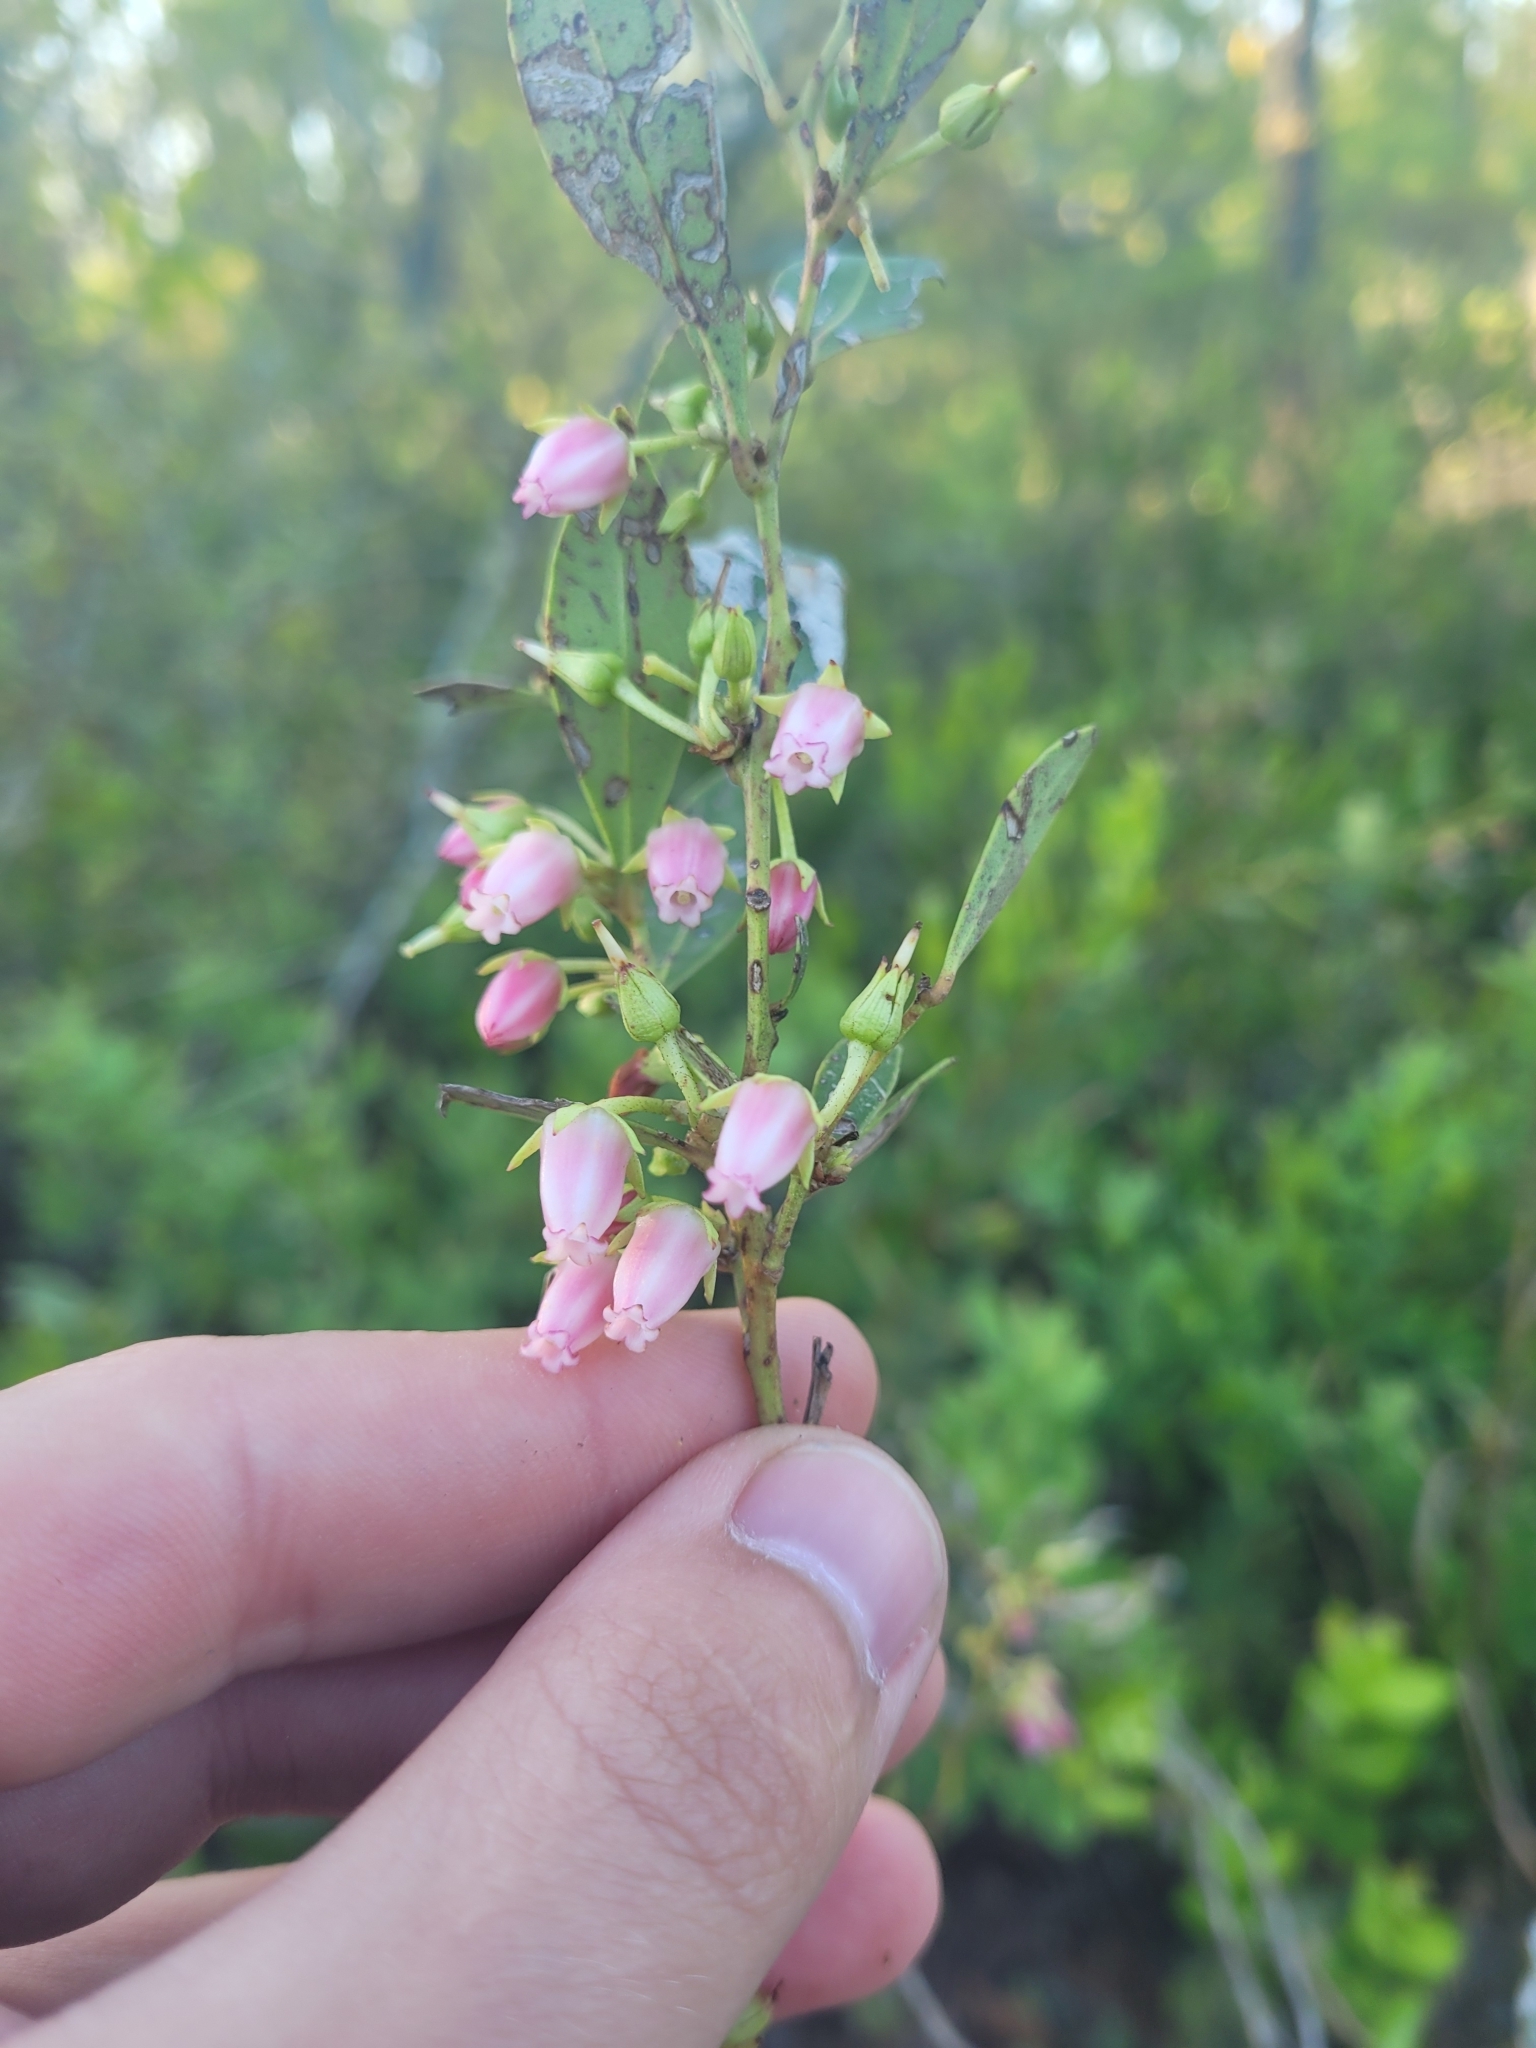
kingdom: Plantae
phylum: Tracheophyta
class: Magnoliopsida
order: Ericales
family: Ericaceae
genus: Lyonia
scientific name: Lyonia lucida
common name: Fetterbush
